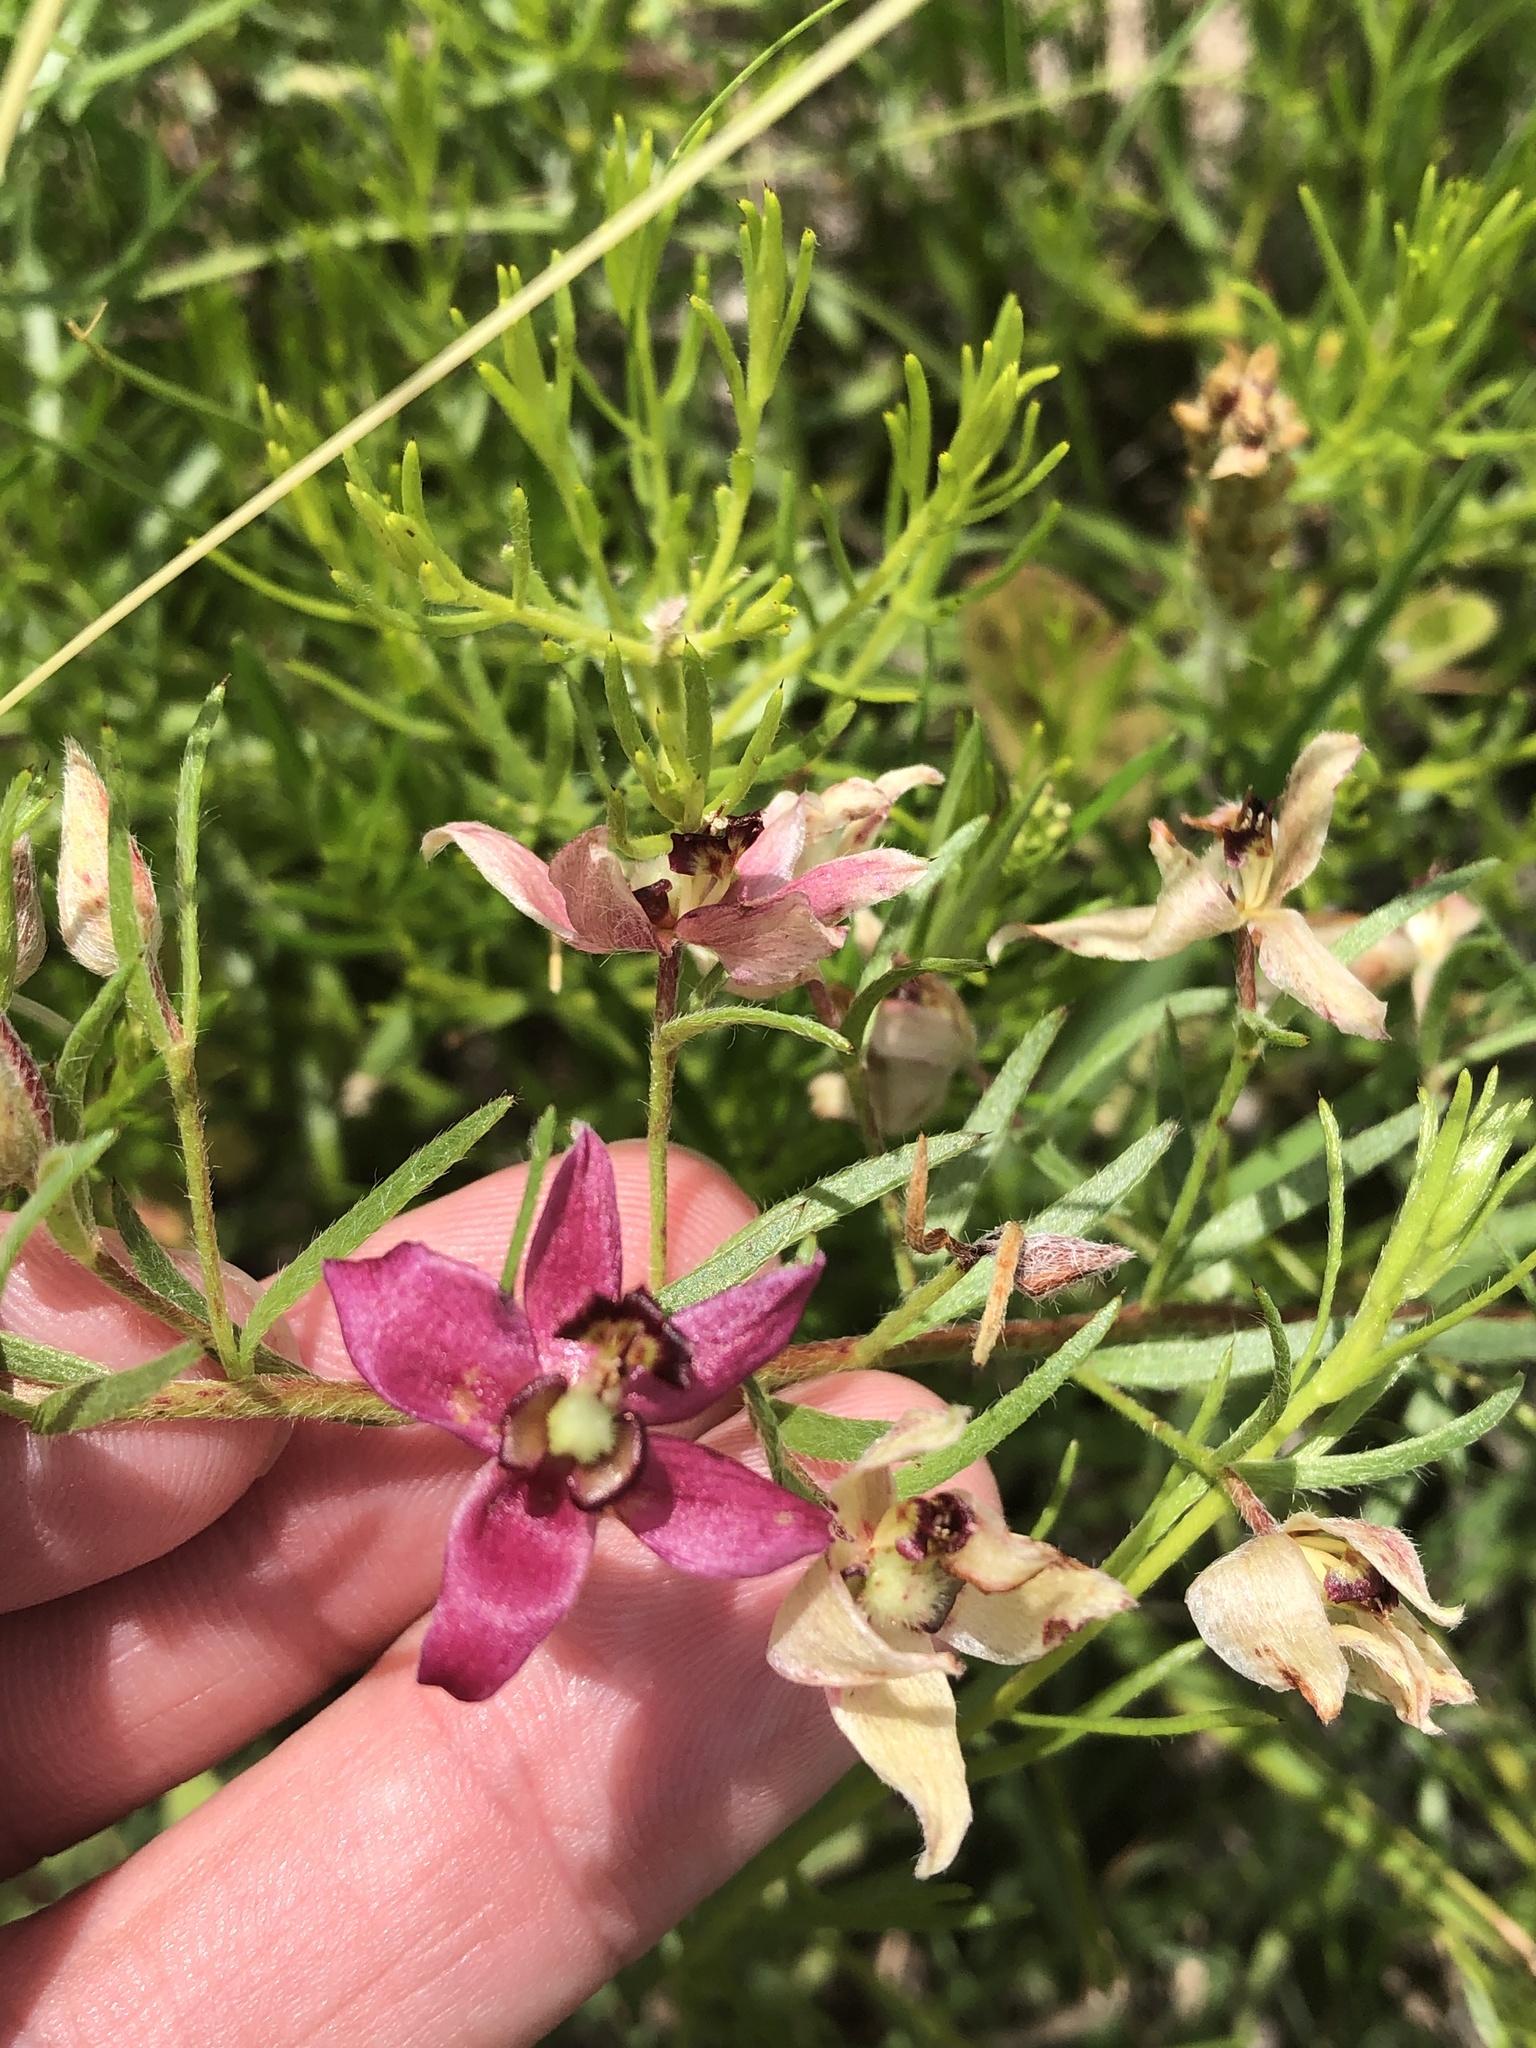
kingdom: Plantae
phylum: Tracheophyta
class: Magnoliopsida
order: Zygophyllales
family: Krameriaceae
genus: Krameria
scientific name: Krameria lanceolata
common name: Ratany
